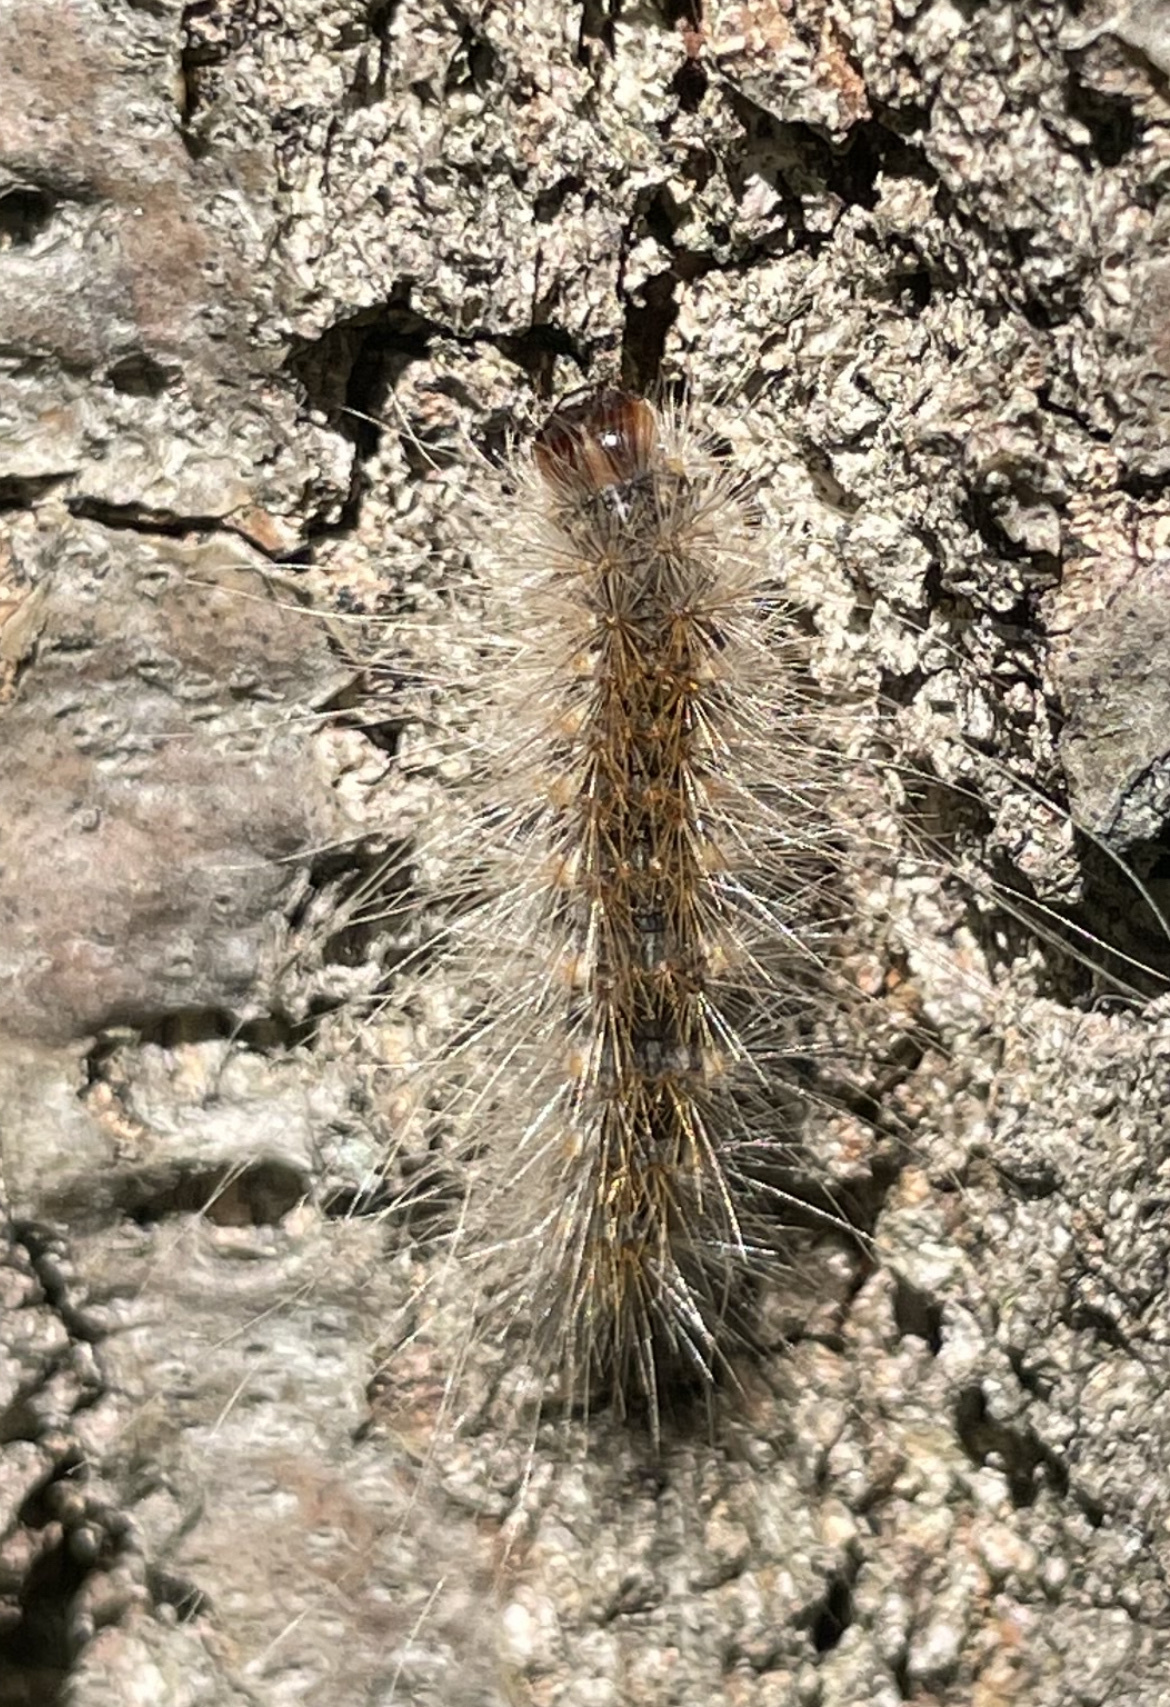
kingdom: Animalia
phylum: Arthropoda
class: Insecta
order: Lepidoptera
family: Erebidae
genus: Hyphantria
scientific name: Hyphantria cunea
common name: American white moth
